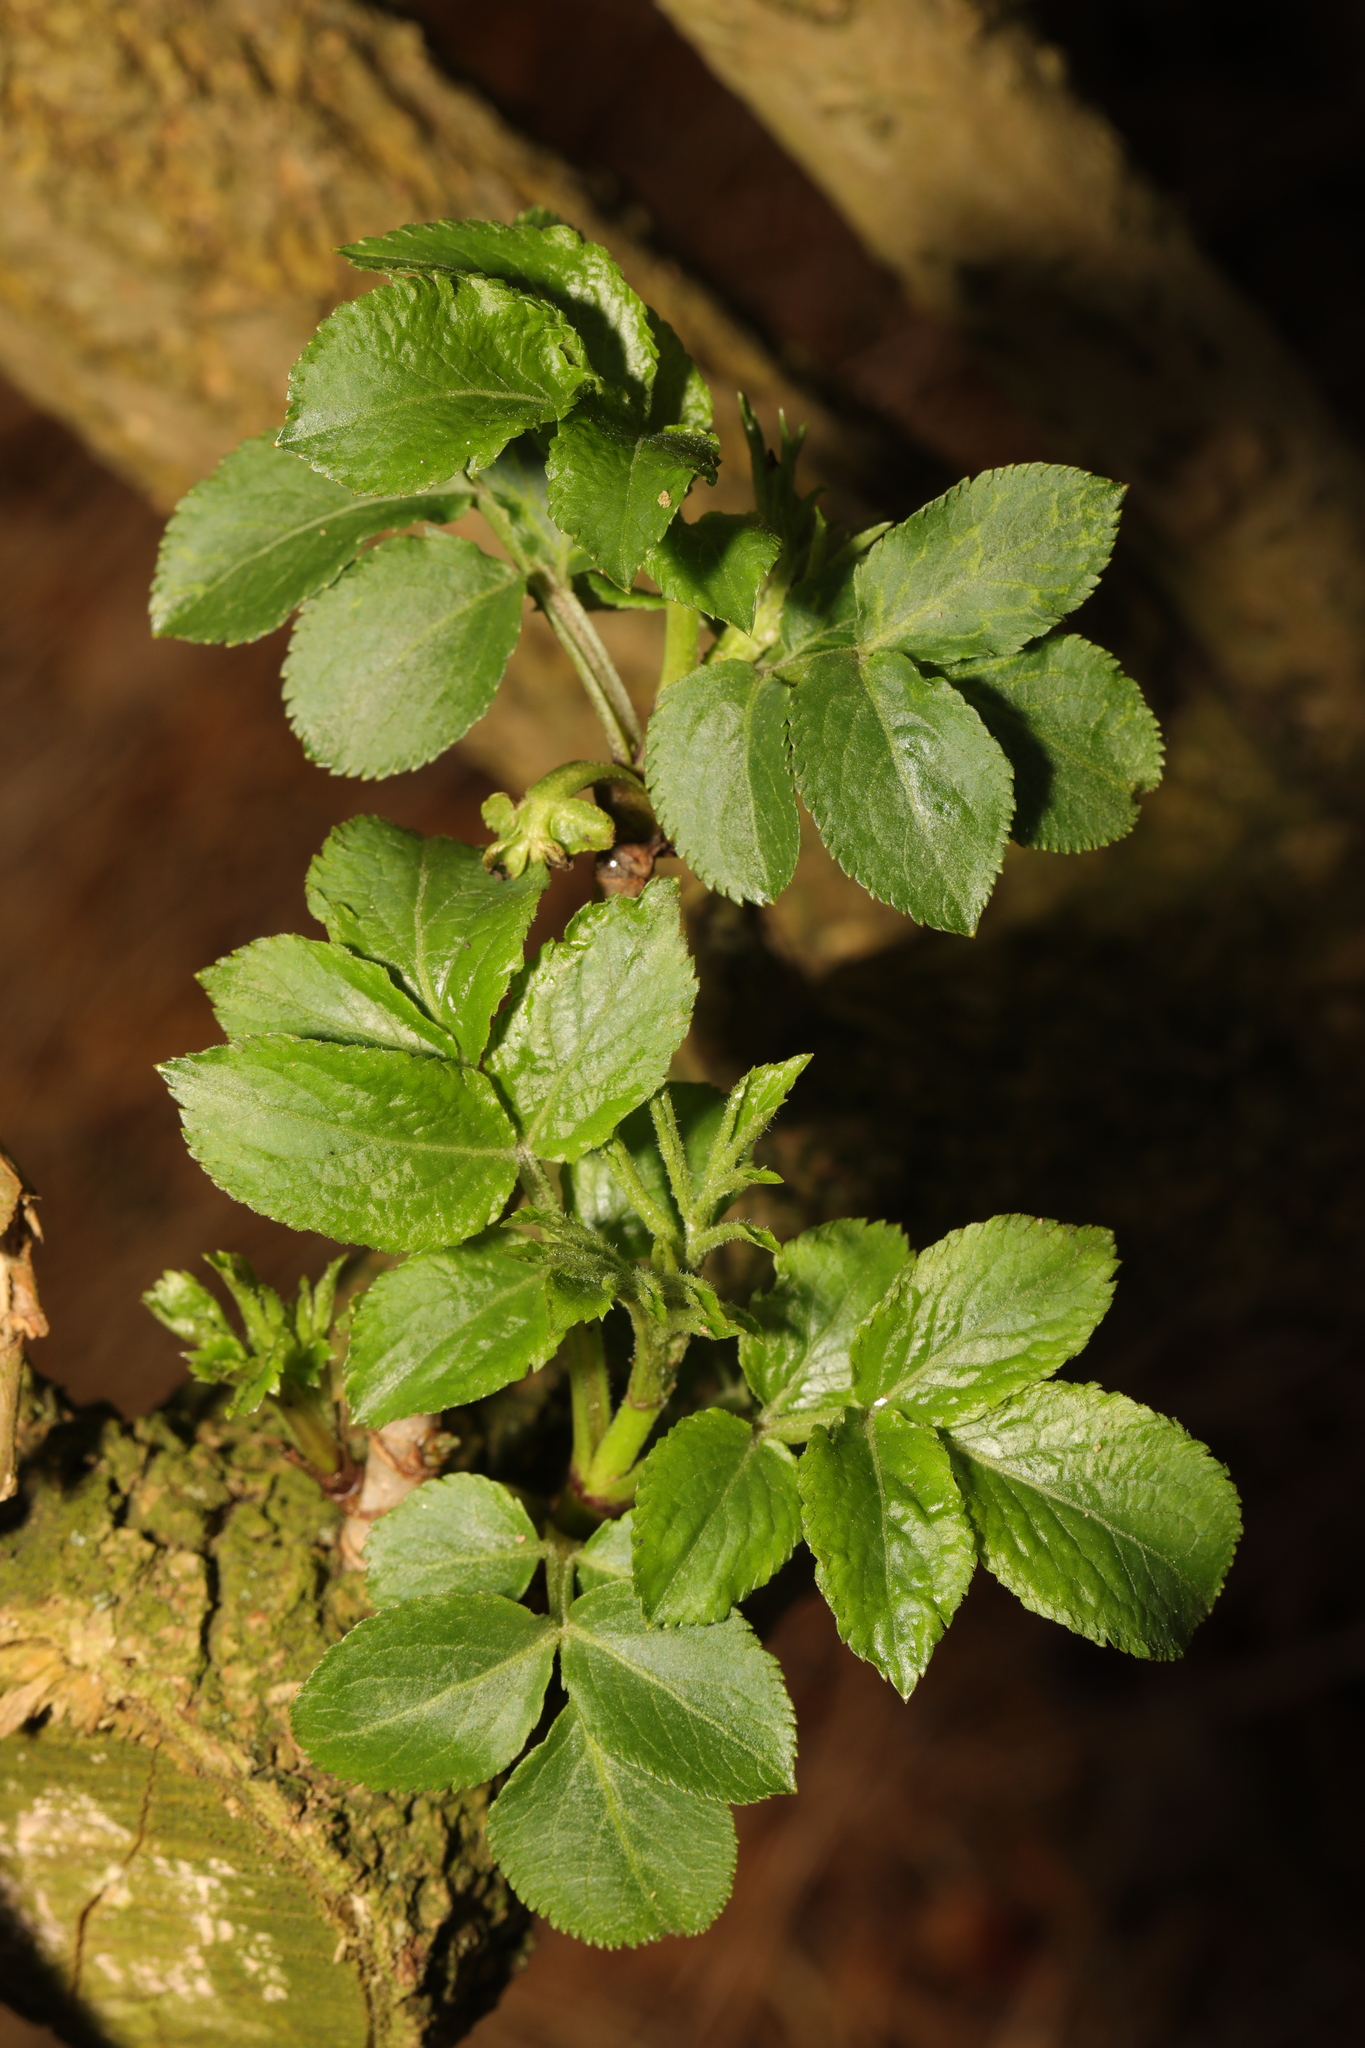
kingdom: Plantae
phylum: Tracheophyta
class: Magnoliopsida
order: Dipsacales
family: Viburnaceae
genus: Sambucus
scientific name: Sambucus nigra
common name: Elder
